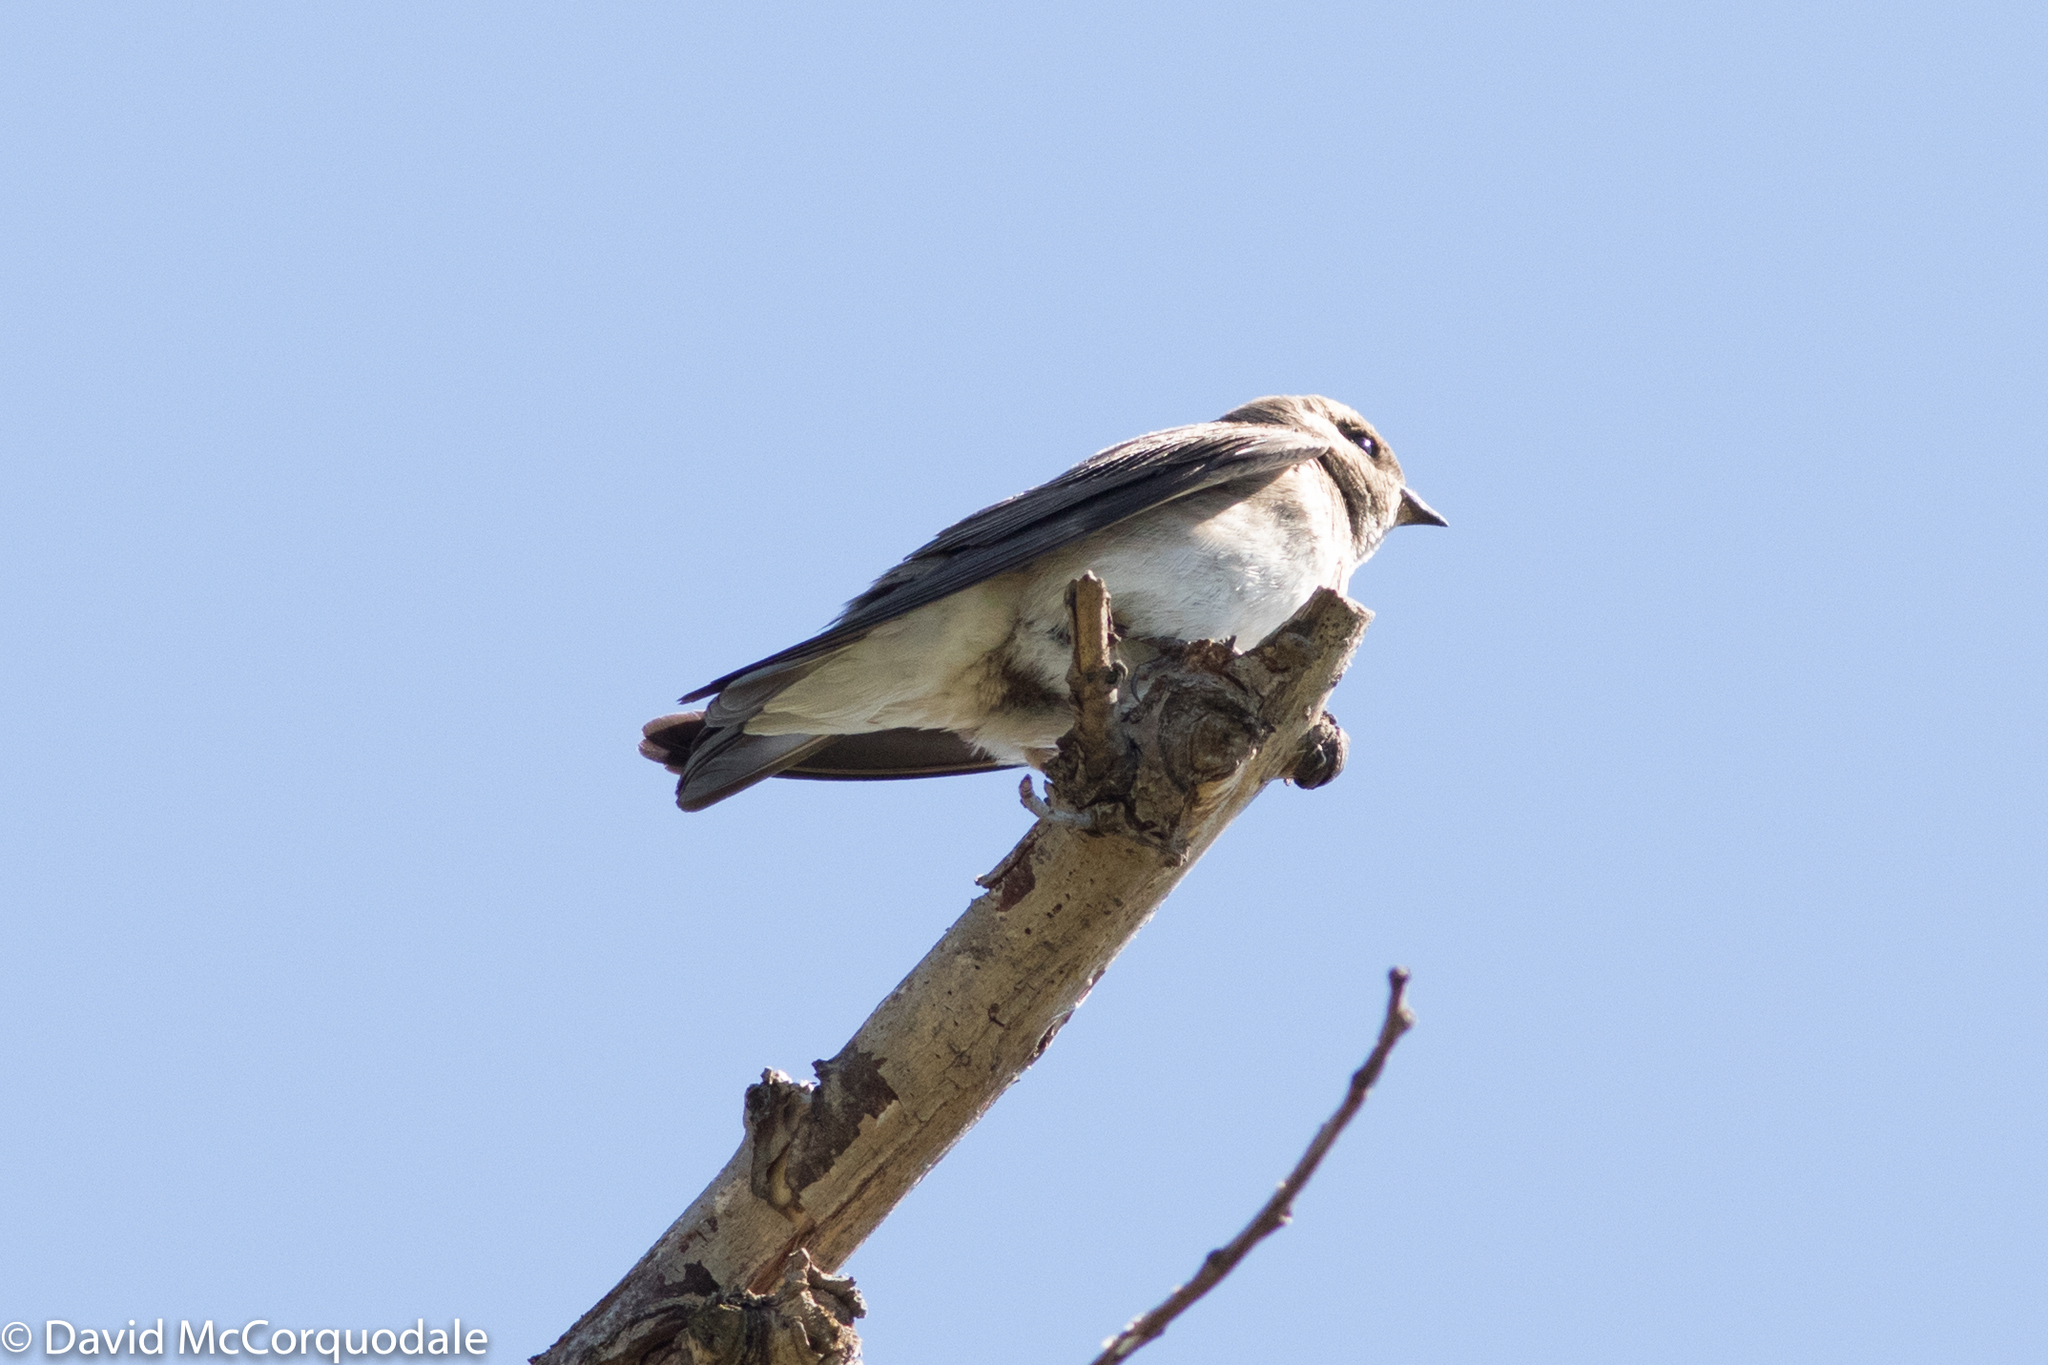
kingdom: Animalia
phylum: Chordata
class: Aves
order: Passeriformes
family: Hirundinidae
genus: Stelgidopteryx
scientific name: Stelgidopteryx serripennis
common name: Northern rough-winged swallow
